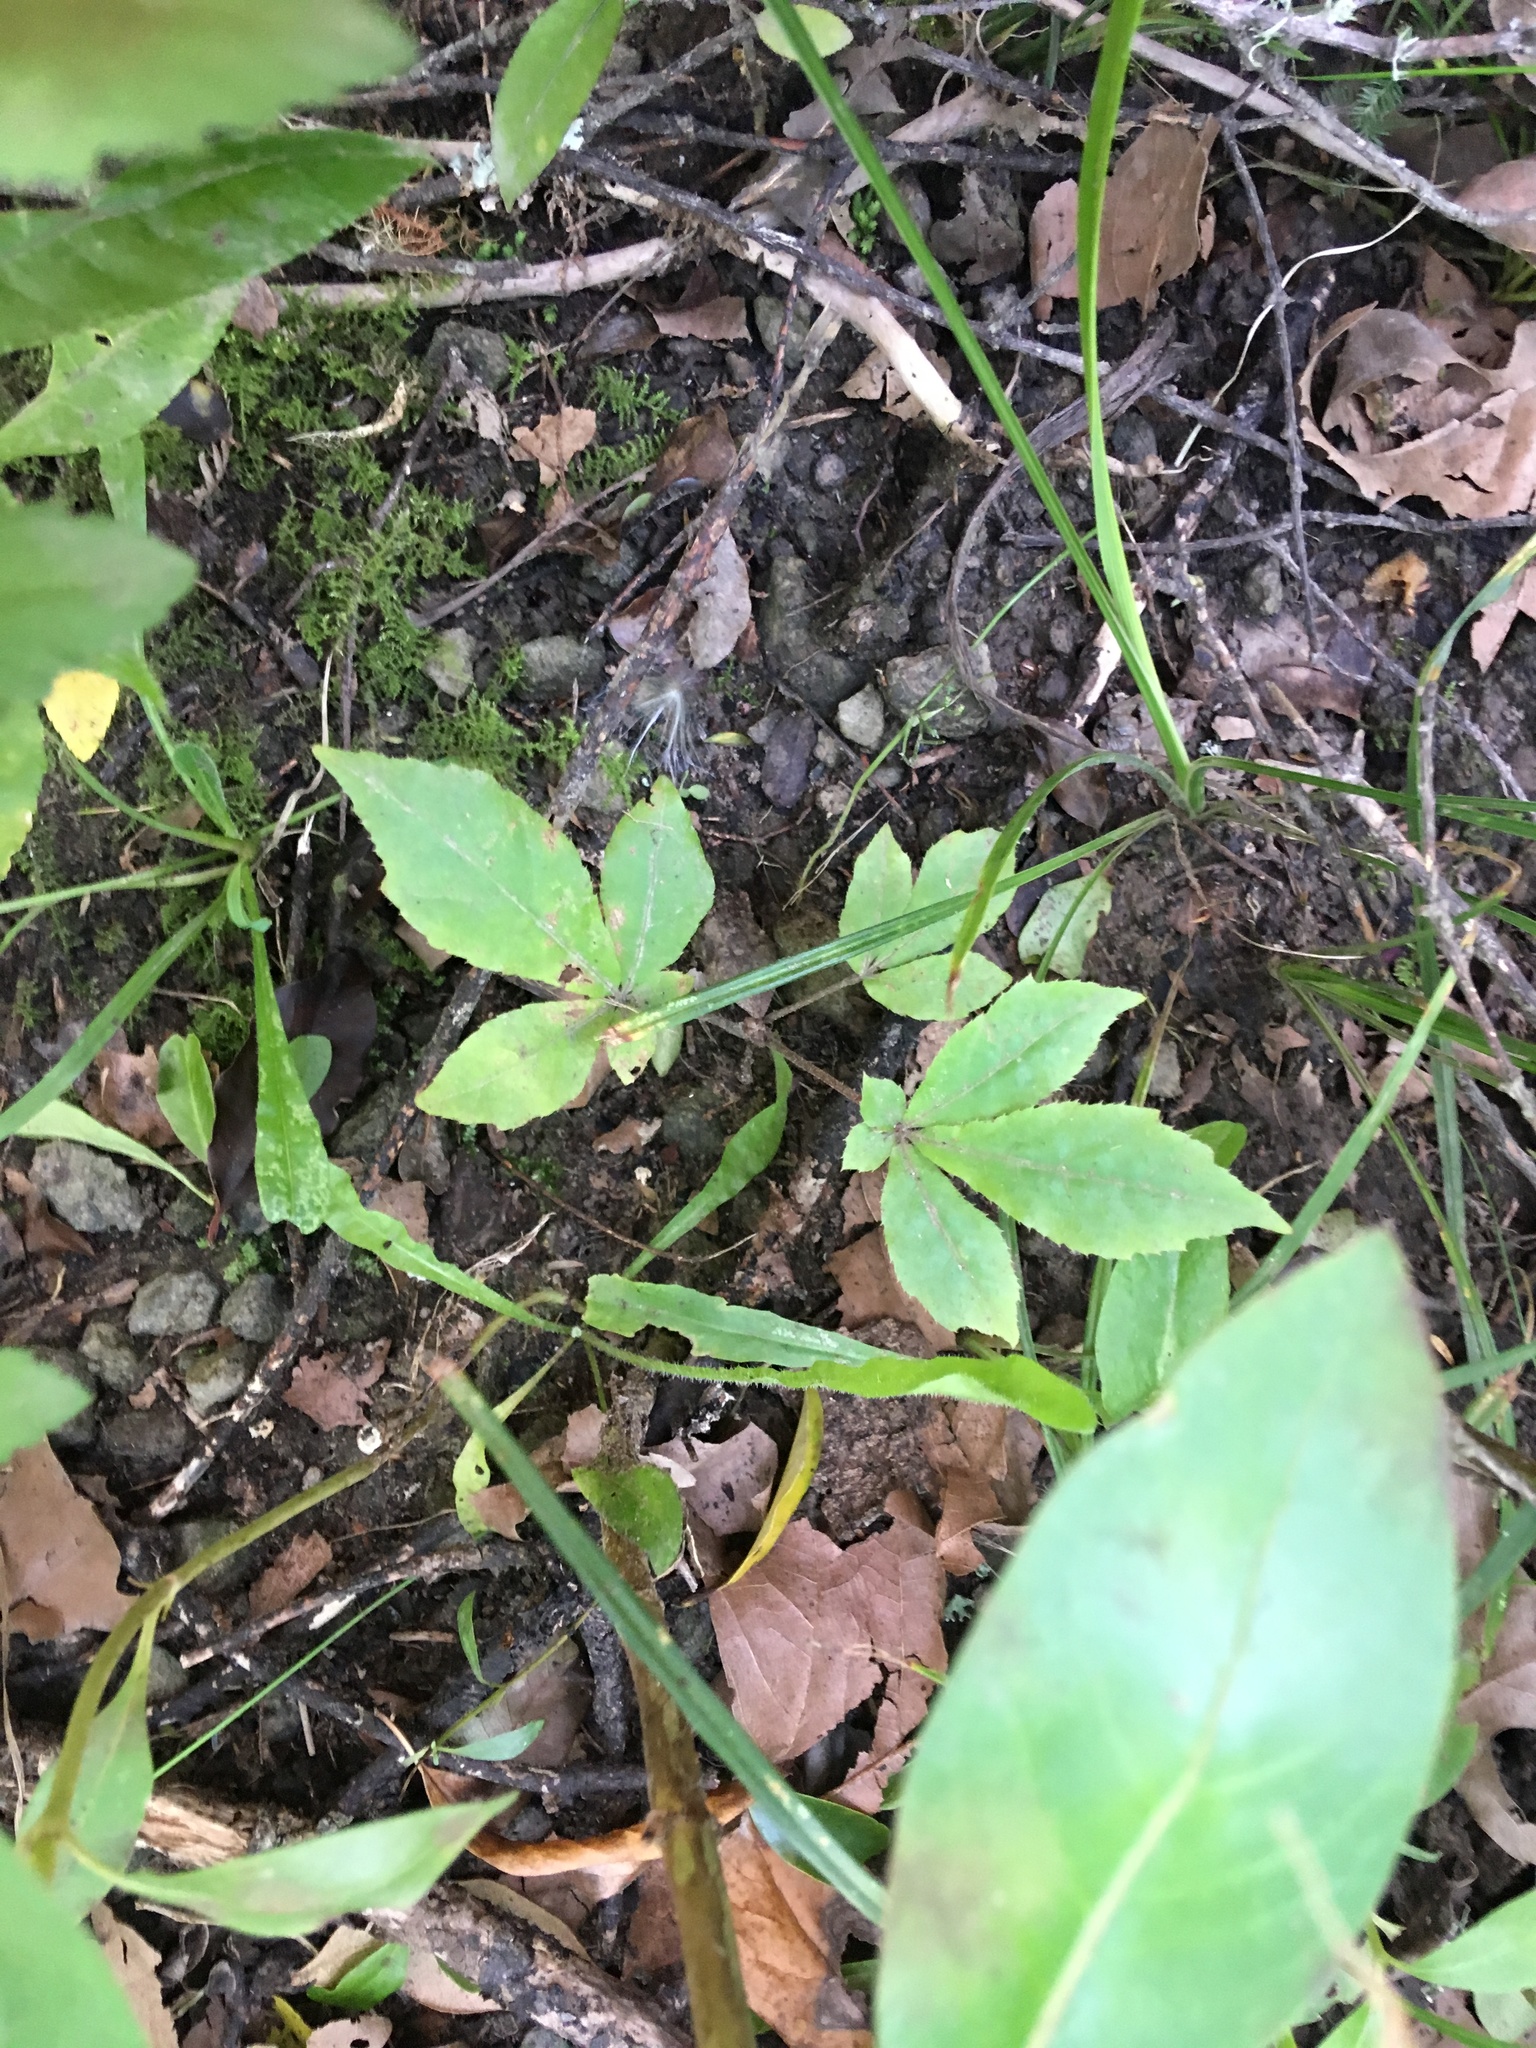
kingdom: Plantae
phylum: Tracheophyta
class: Magnoliopsida
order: Apiales
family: Araliaceae
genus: Schefflera
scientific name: Schefflera digitata
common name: Pate
